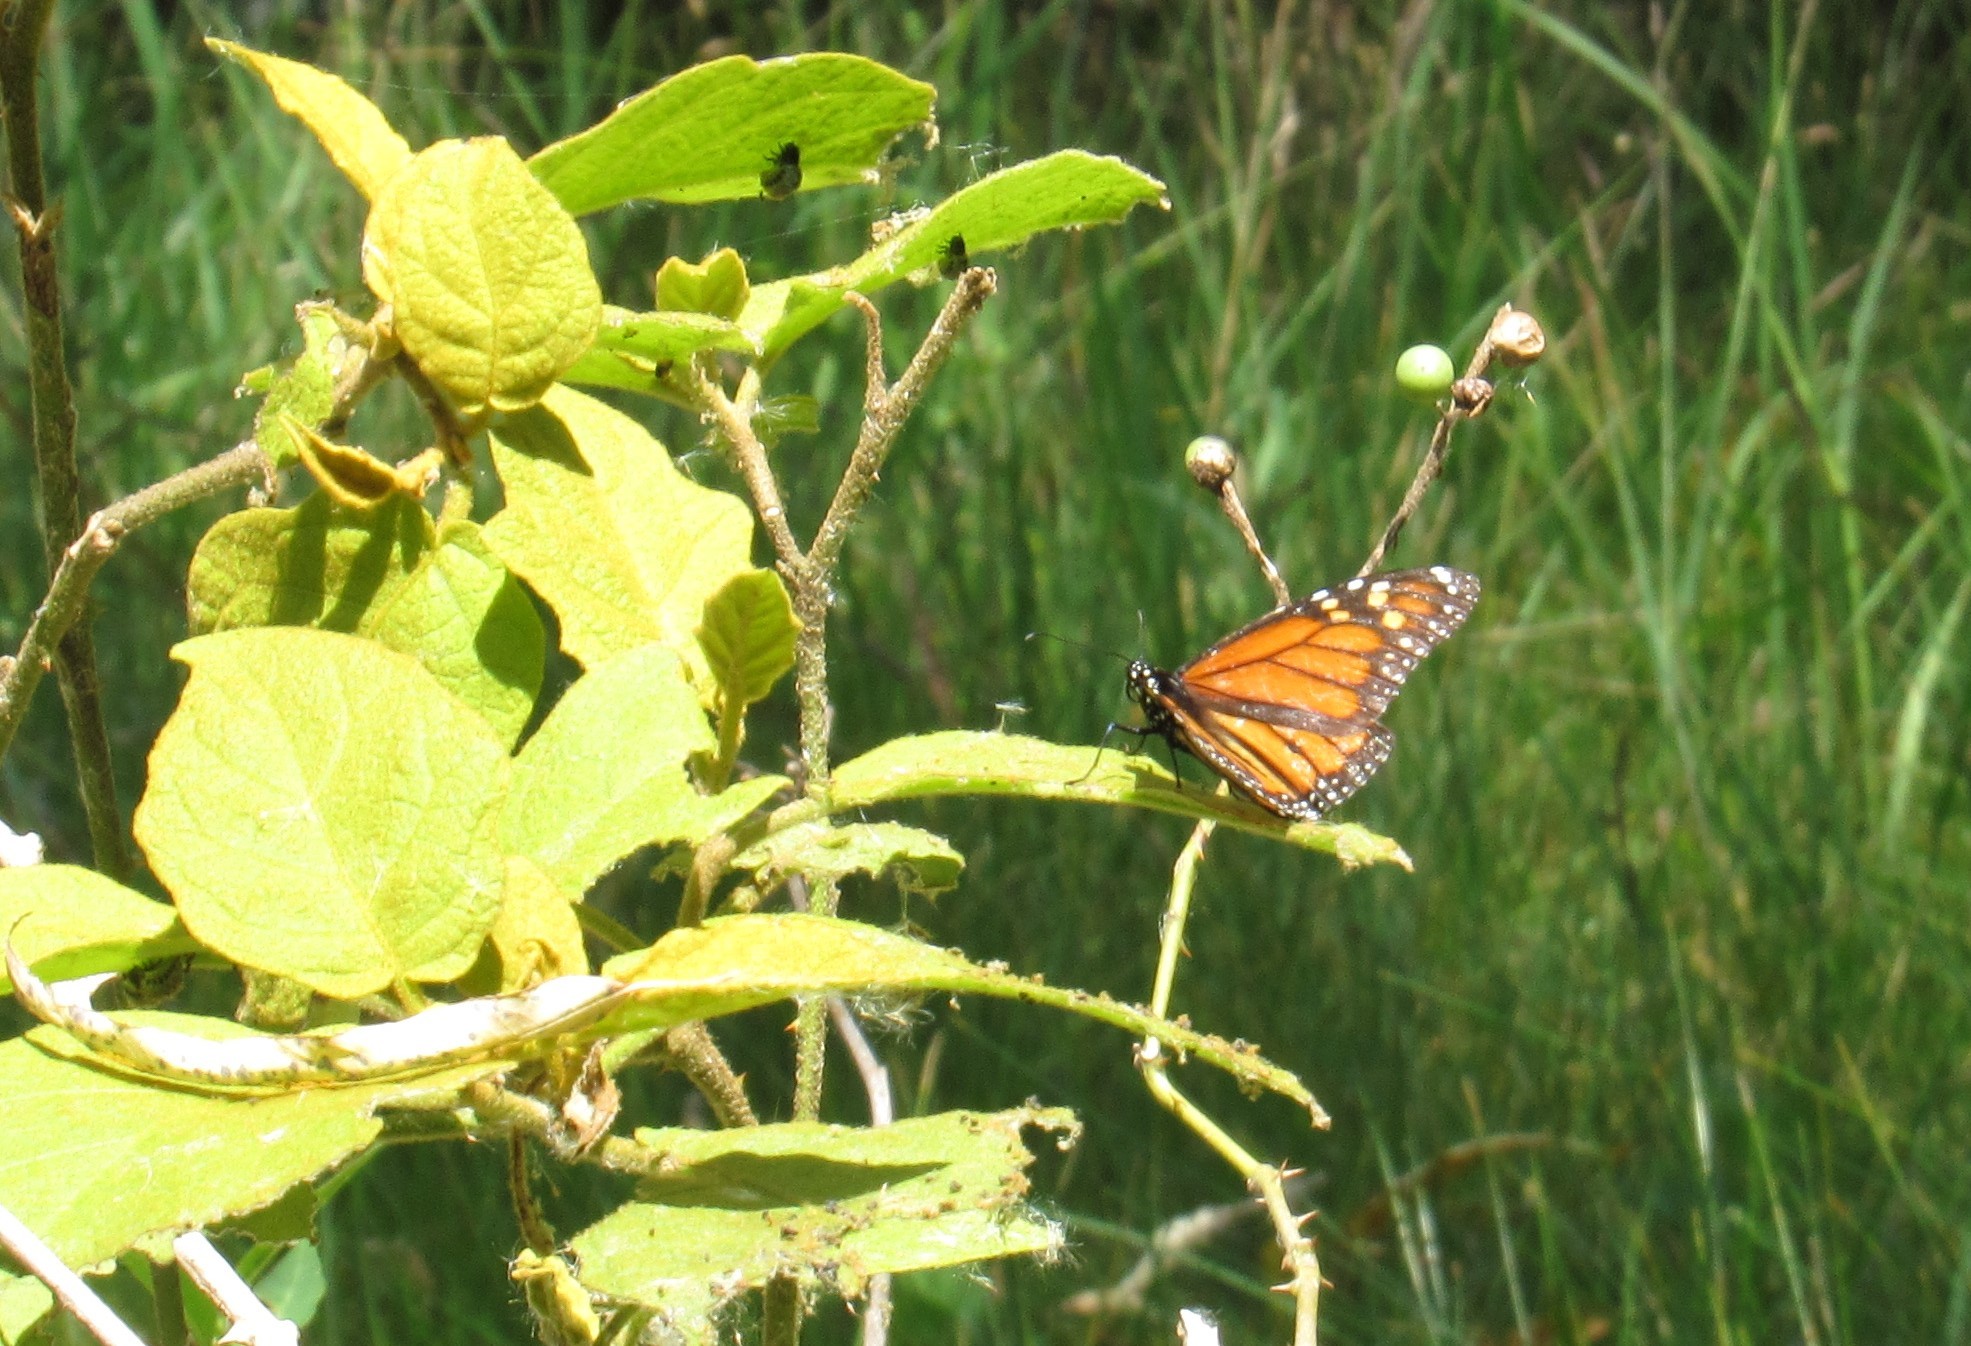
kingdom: Animalia
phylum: Arthropoda
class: Insecta
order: Lepidoptera
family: Nymphalidae
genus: Danaus
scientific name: Danaus plexippus
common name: Monarch
